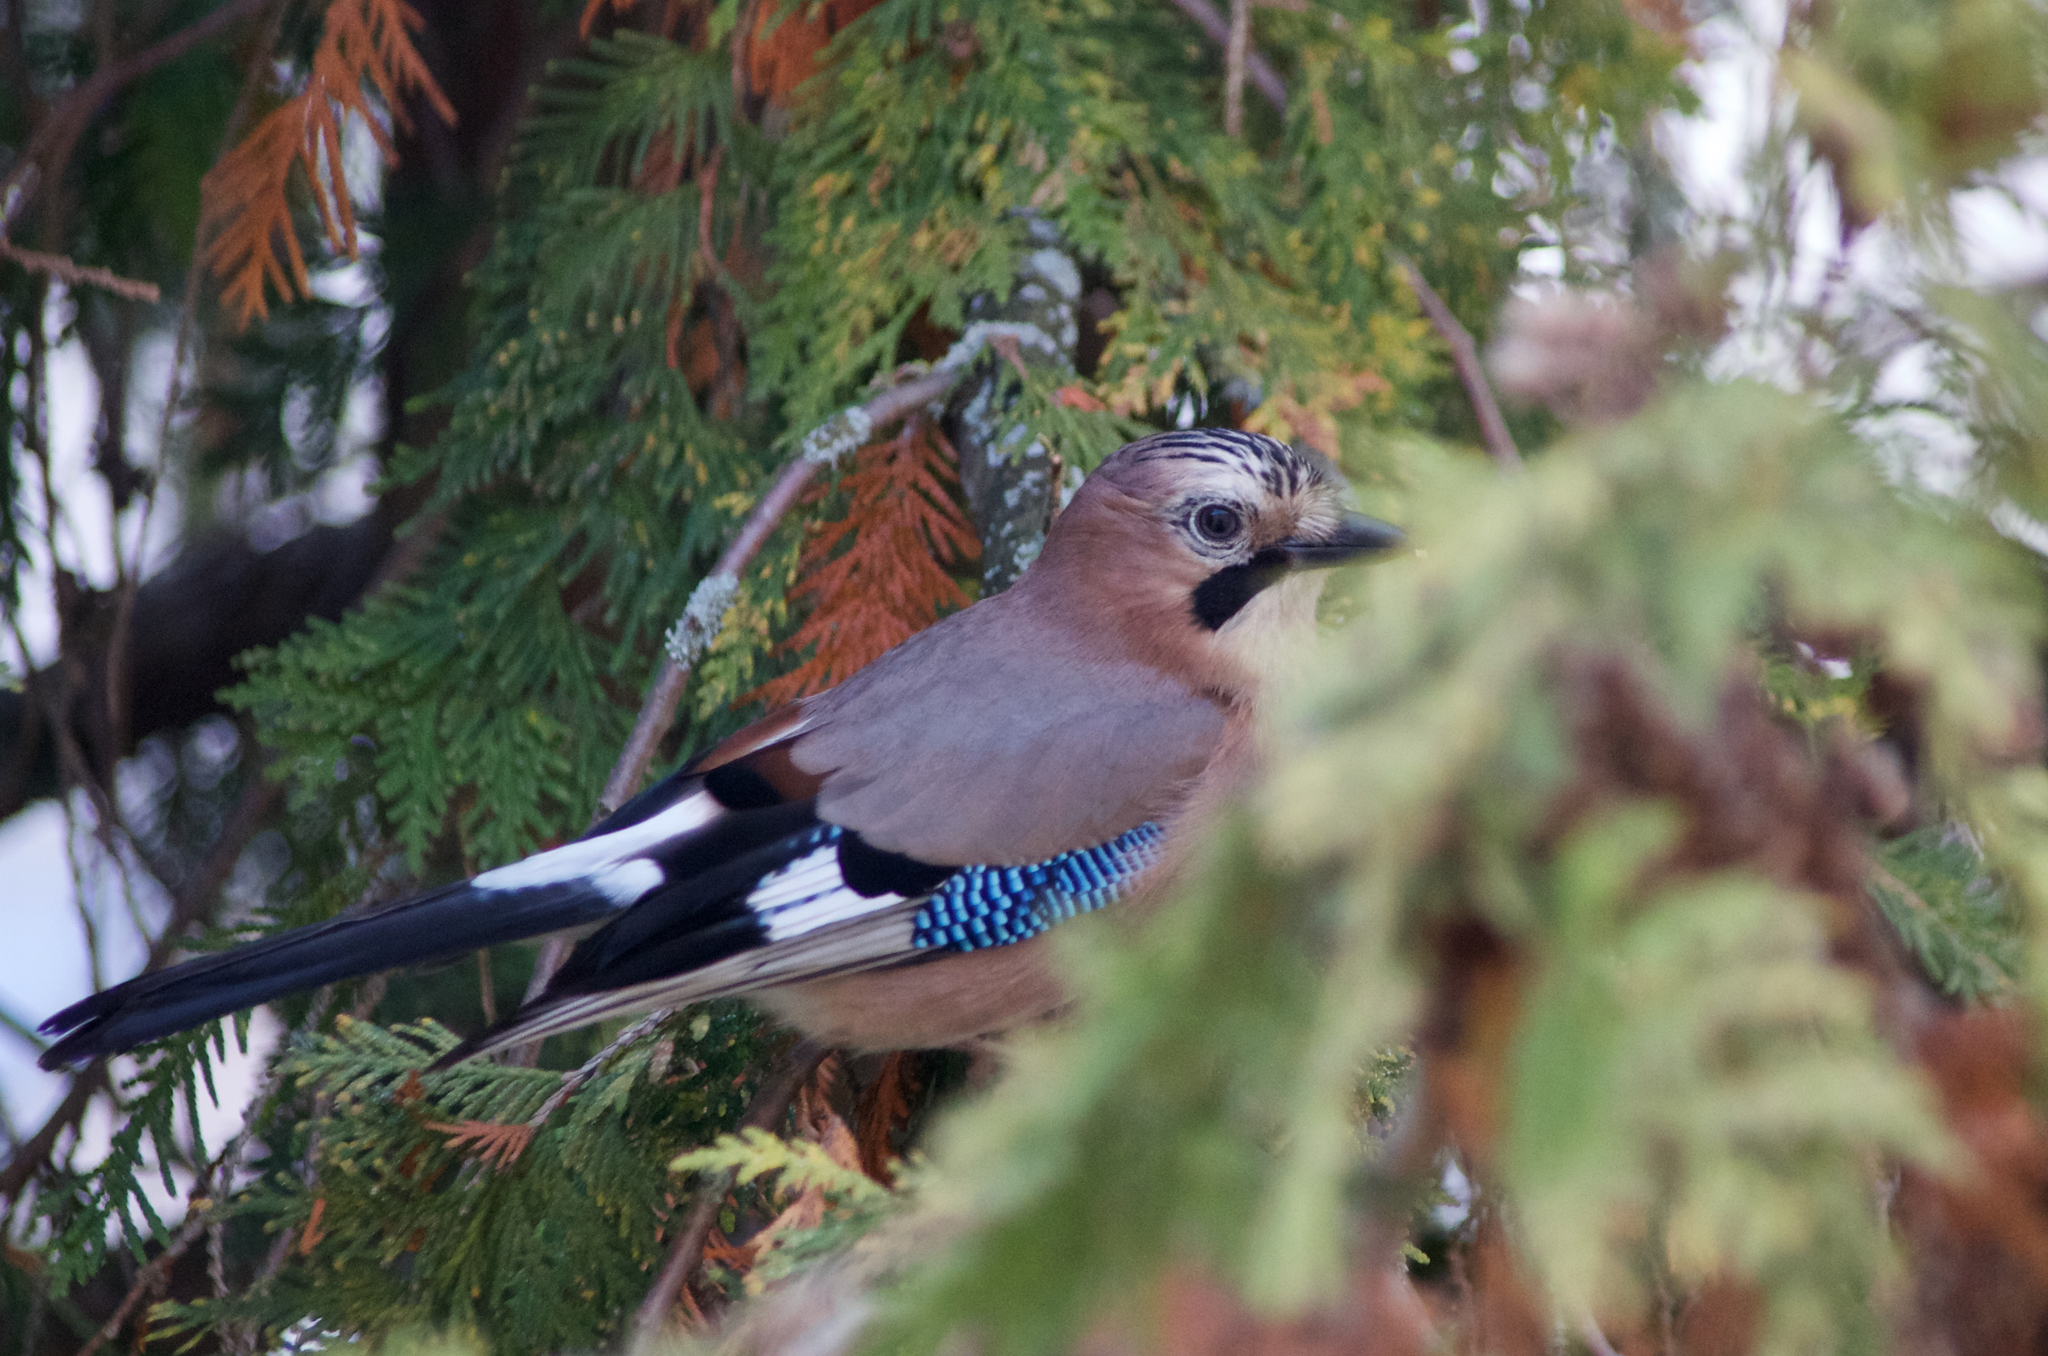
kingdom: Animalia
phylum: Chordata
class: Aves
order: Passeriformes
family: Corvidae
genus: Garrulus
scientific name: Garrulus glandarius
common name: Eurasian jay
